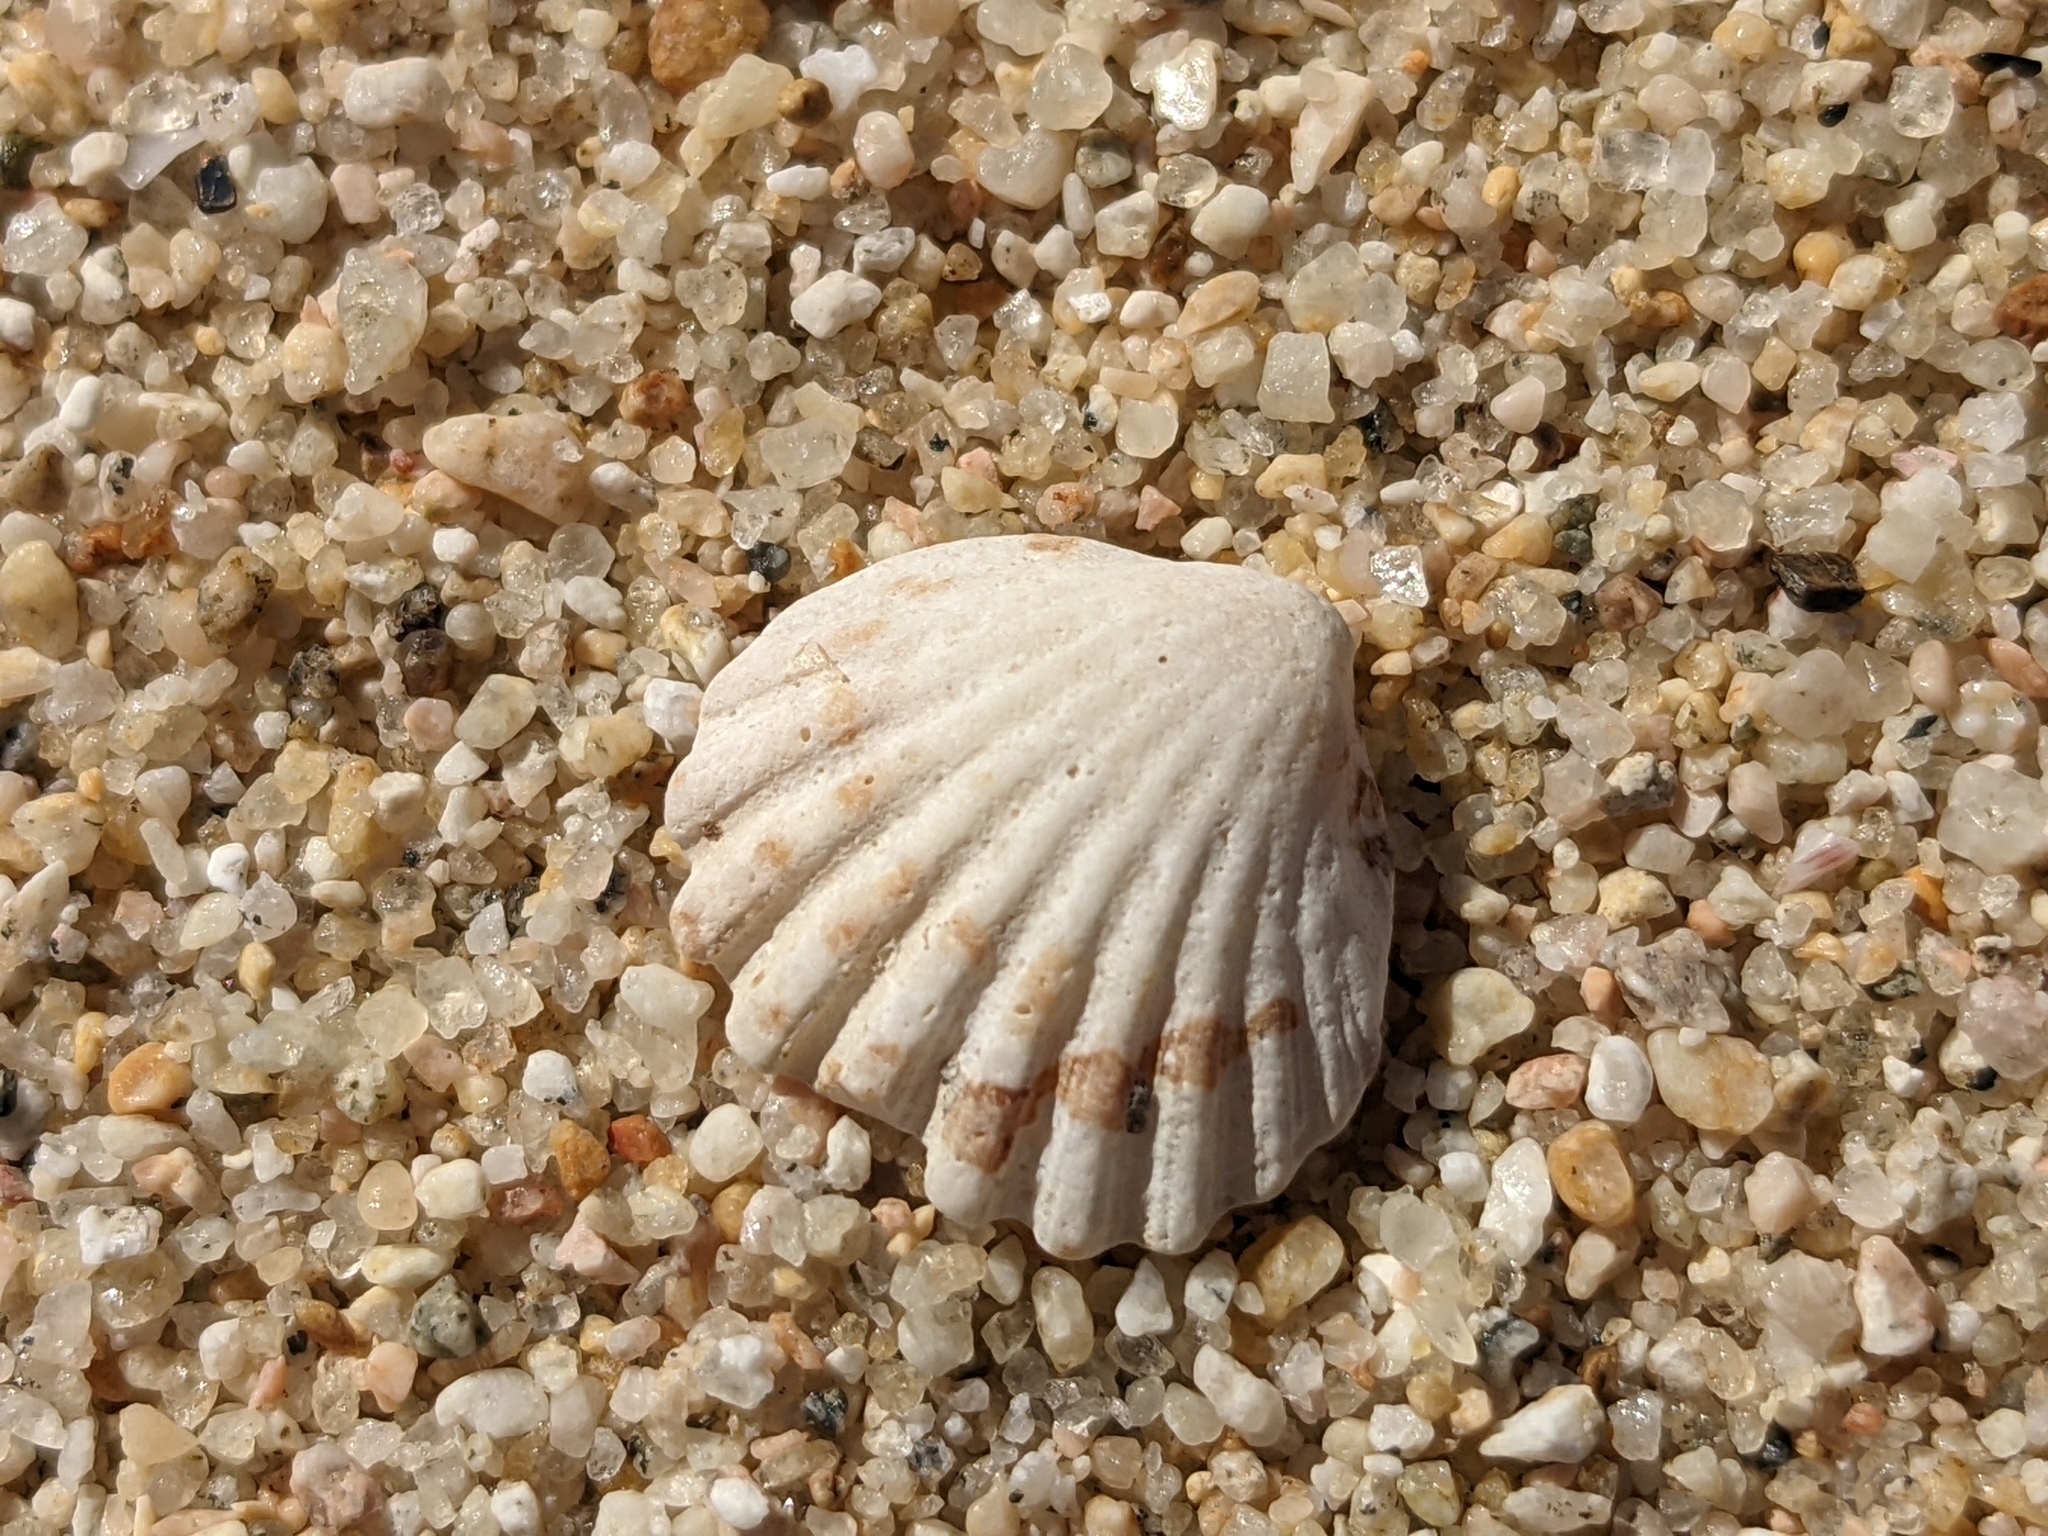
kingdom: Animalia
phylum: Mollusca
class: Bivalvia
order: Arcida
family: Glycymerididae
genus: Axinactis
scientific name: Axinactis delessertii
